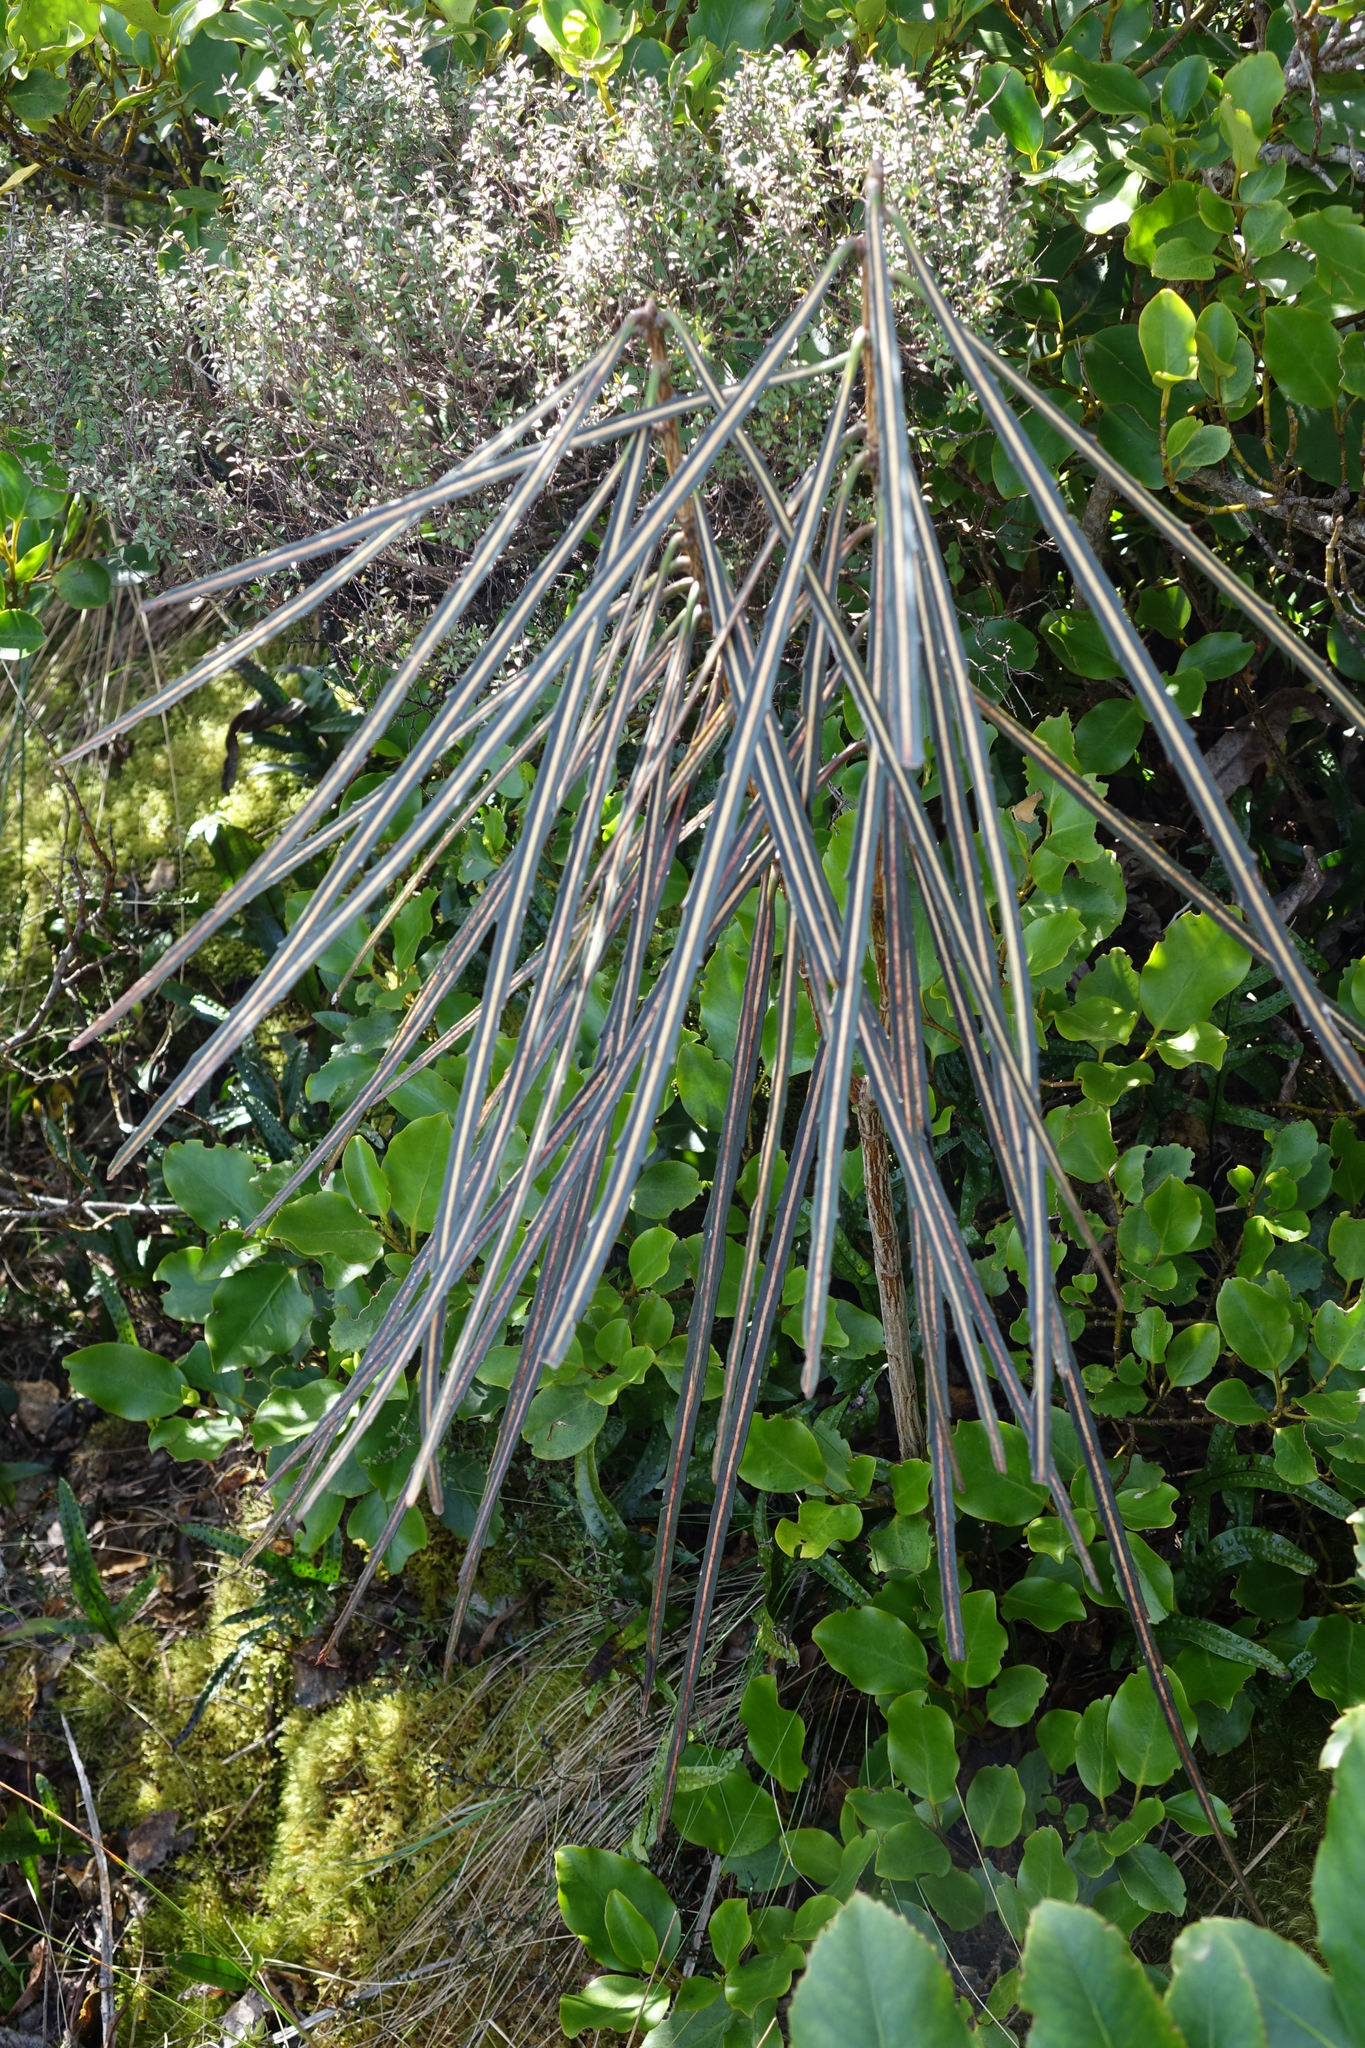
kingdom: Plantae
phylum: Tracheophyta
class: Magnoliopsida
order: Apiales
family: Araliaceae
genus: Pseudopanax
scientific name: Pseudopanax crassifolius
